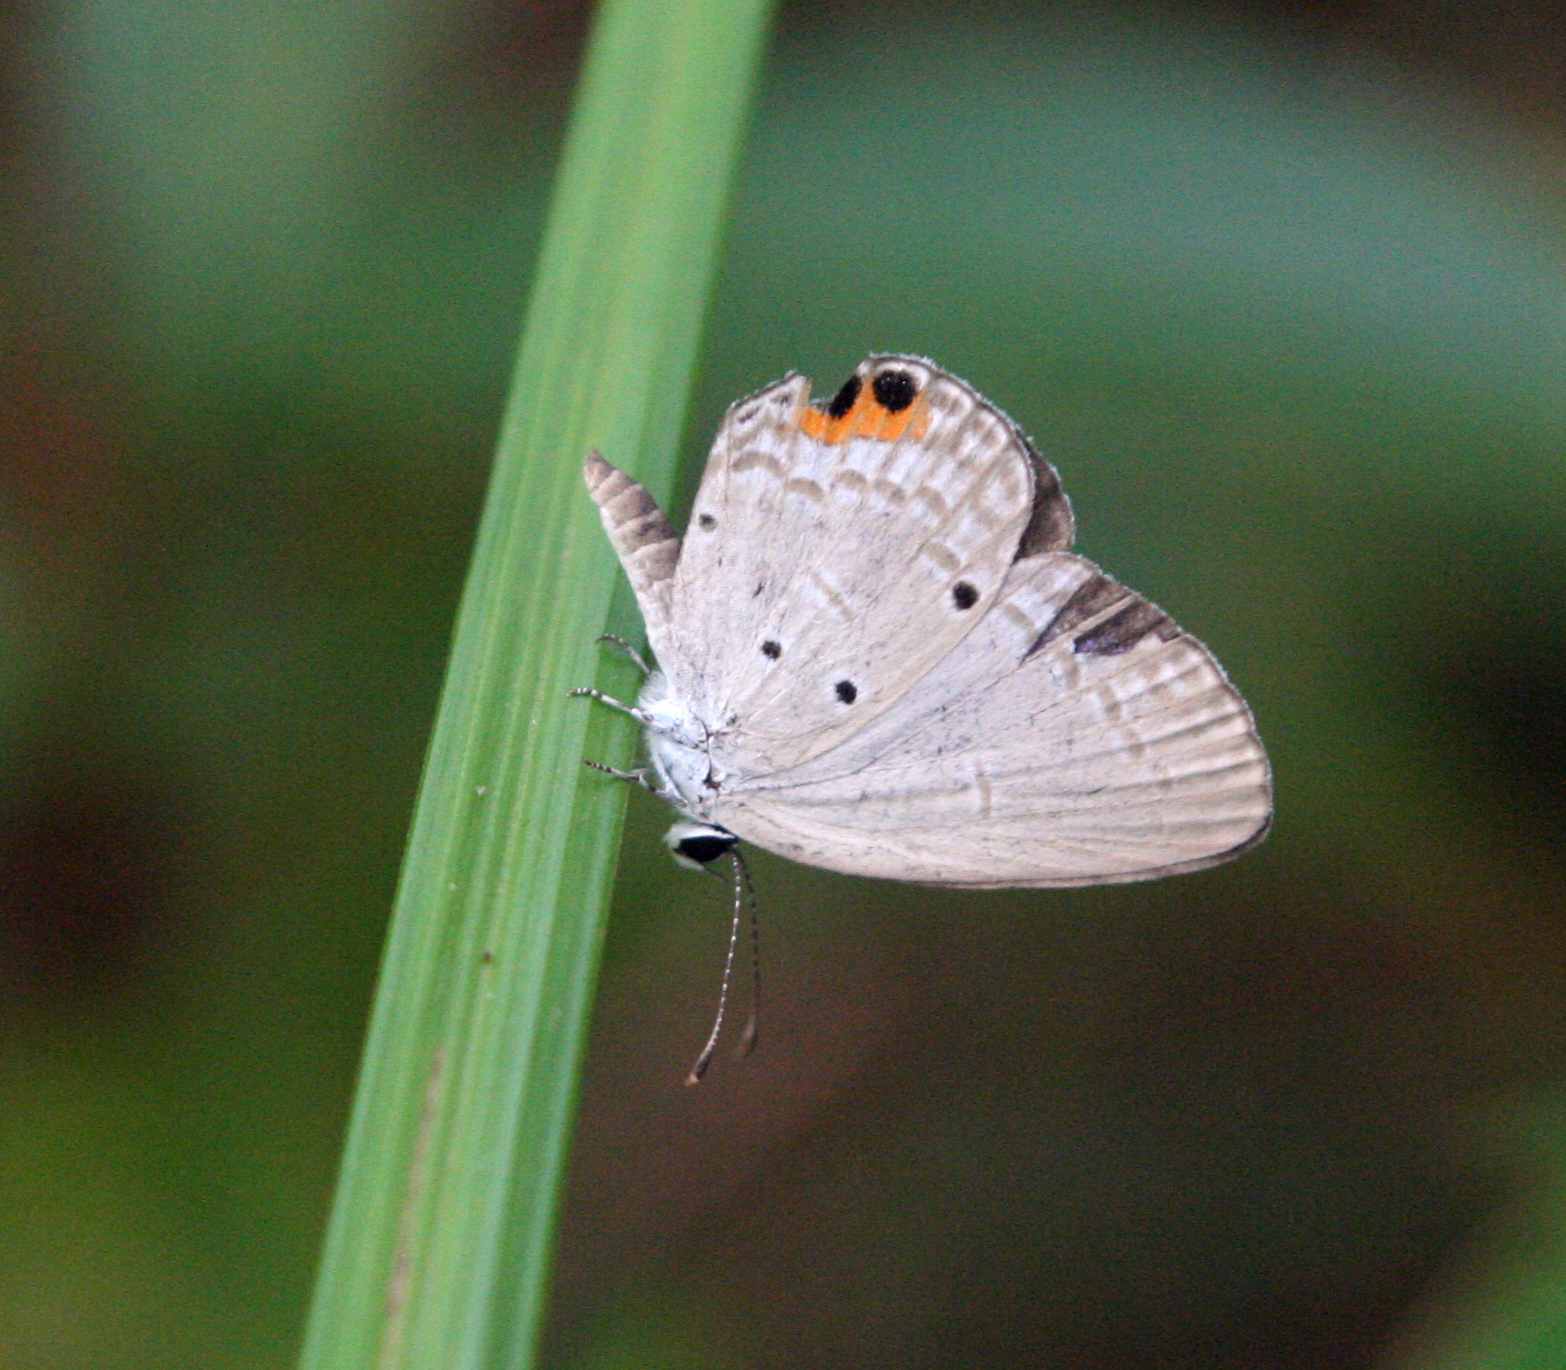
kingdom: Animalia
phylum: Arthropoda
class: Insecta
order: Lepidoptera
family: Lycaenidae
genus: Everes
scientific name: Everes lacturnus
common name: Orange-tipped pea-blue
